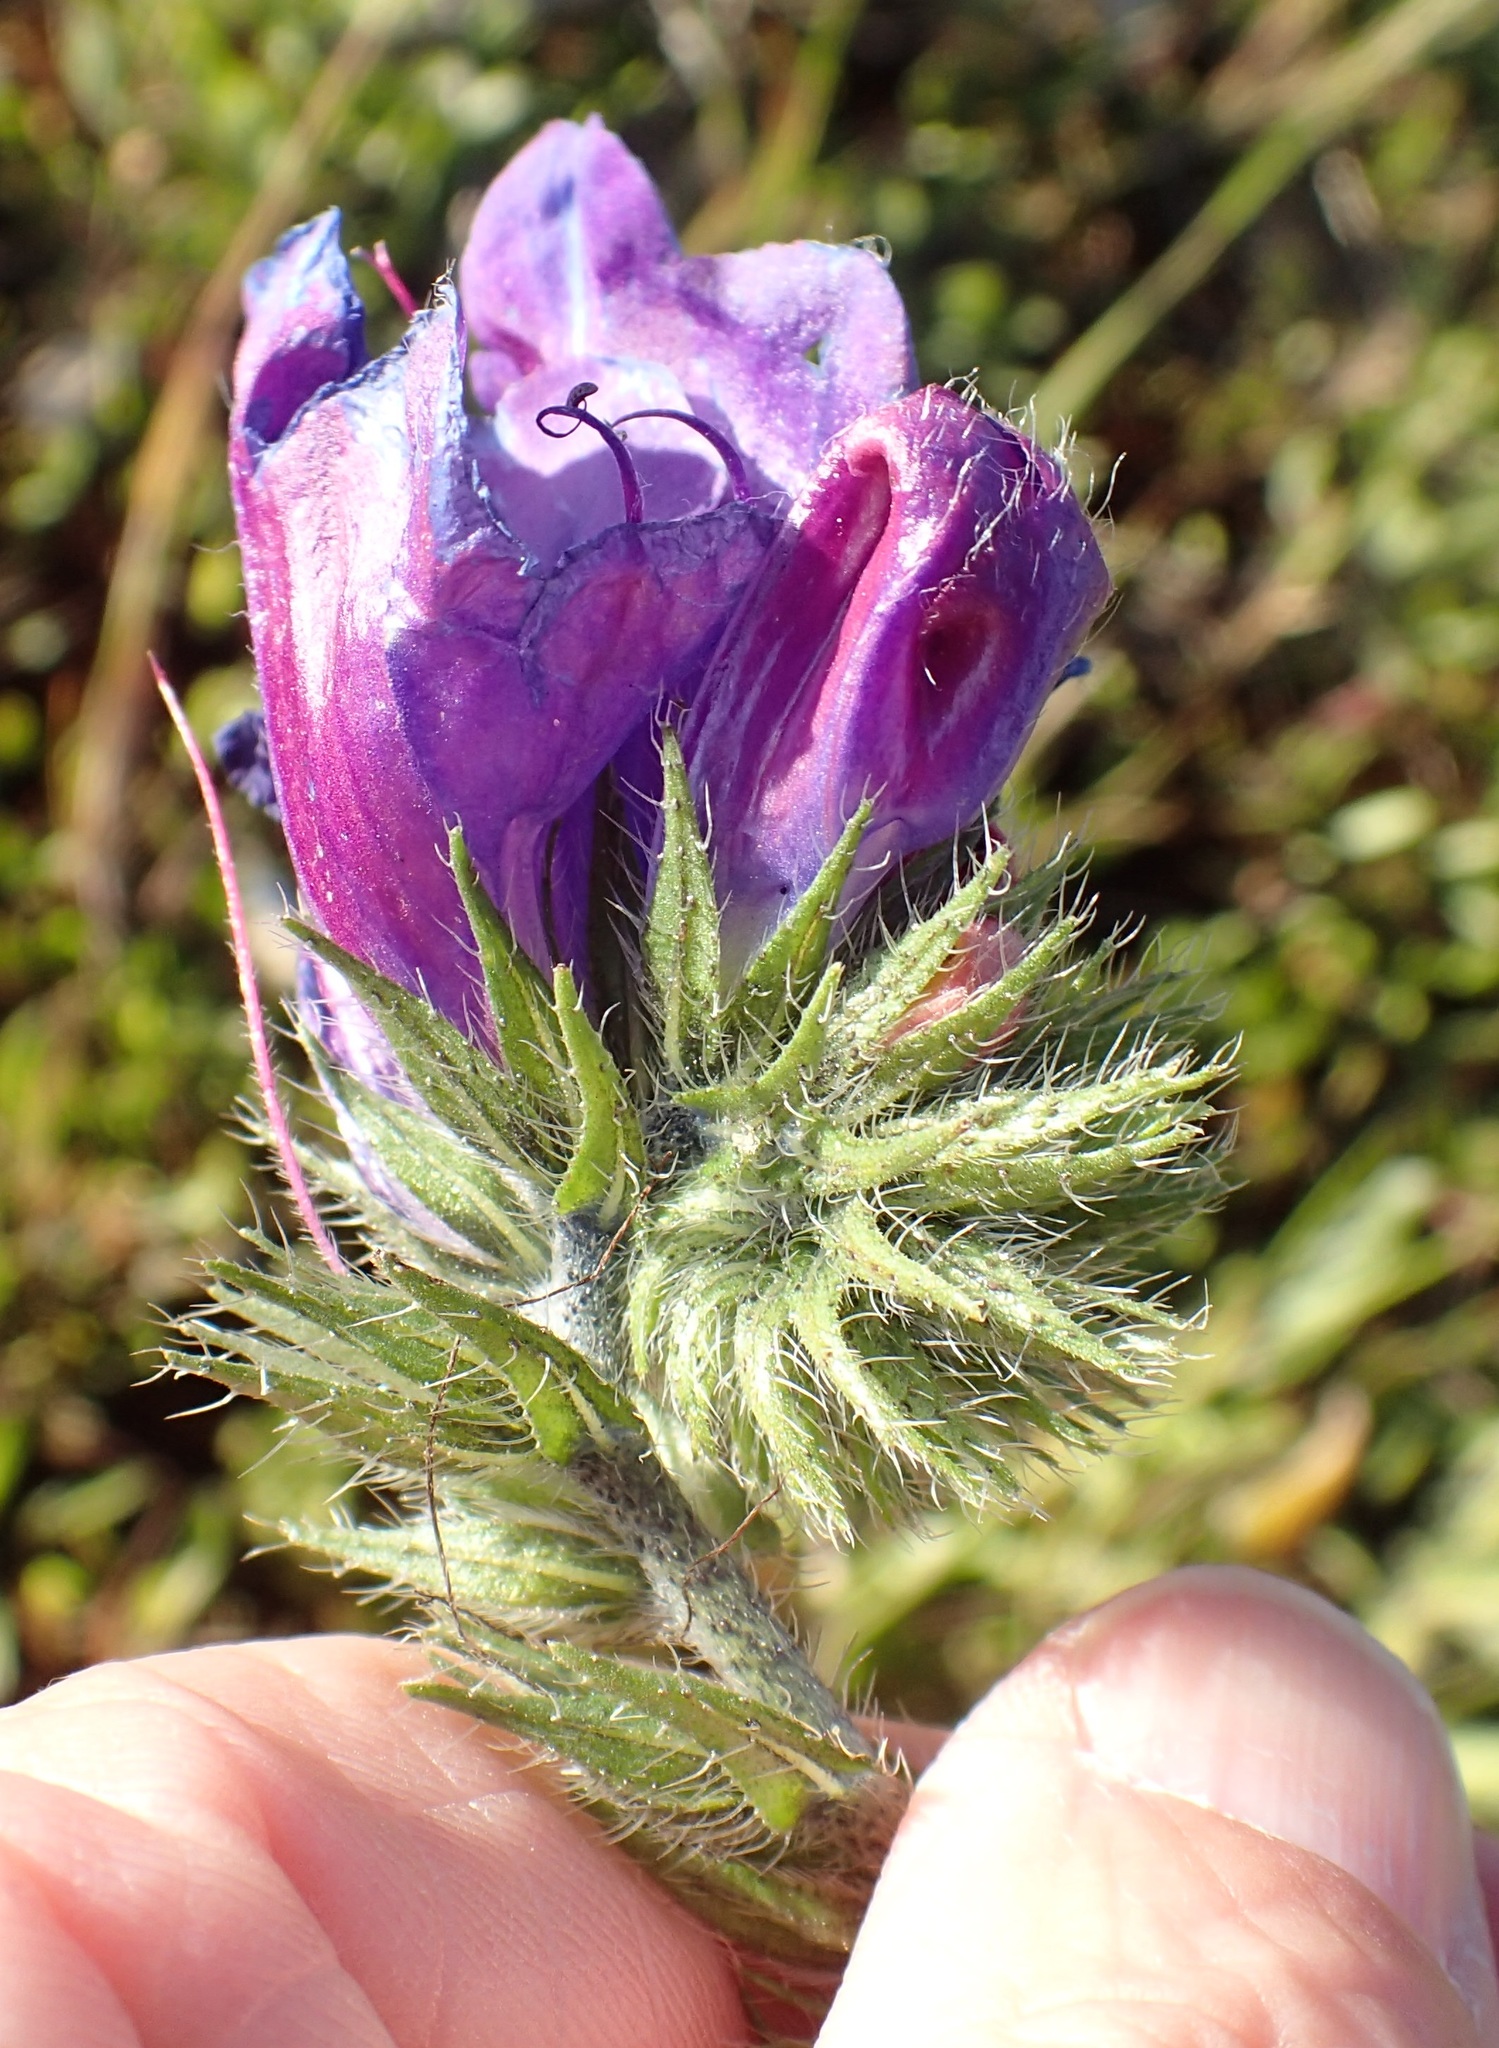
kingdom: Plantae
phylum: Tracheophyta
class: Magnoliopsida
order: Boraginales
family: Boraginaceae
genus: Echium
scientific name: Echium plantagineum
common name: Purple viper's-bugloss
